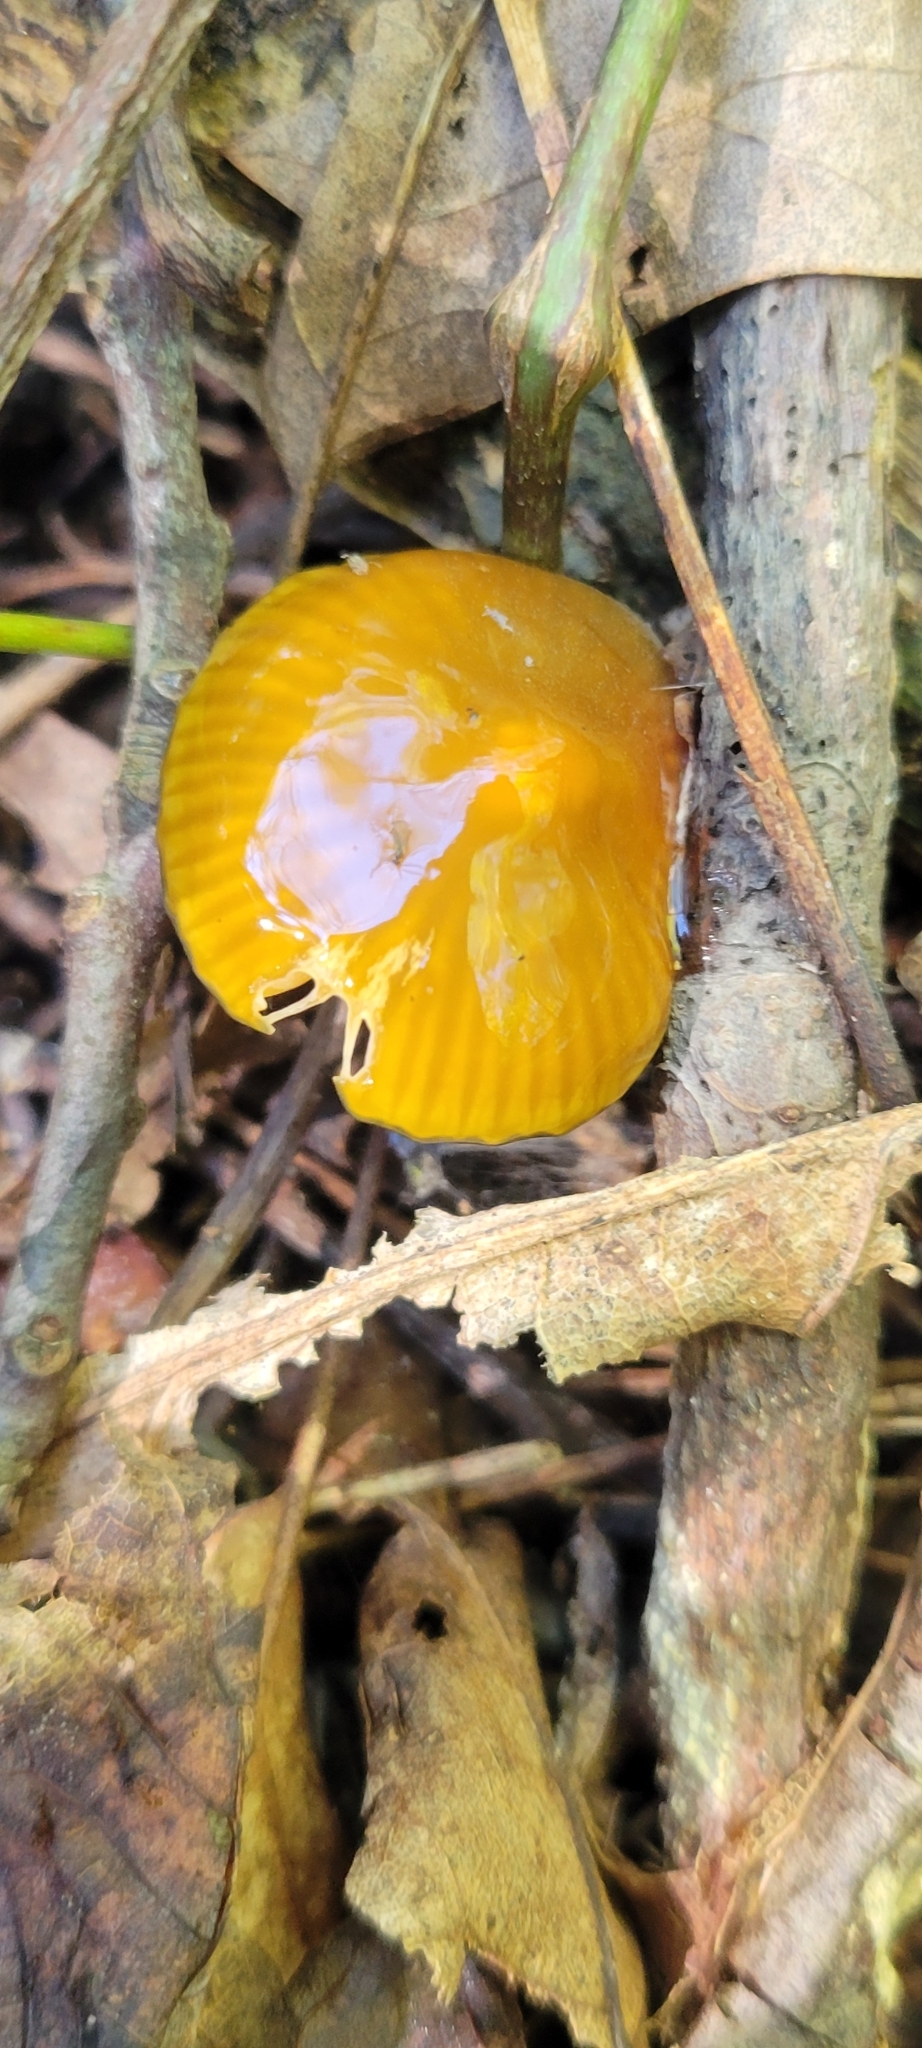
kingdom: Fungi
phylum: Basidiomycota
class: Agaricomycetes
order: Agaricales
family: Hygrophoraceae
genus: Gliophorus
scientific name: Gliophorus psittacinus
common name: Parrot wax-cap
